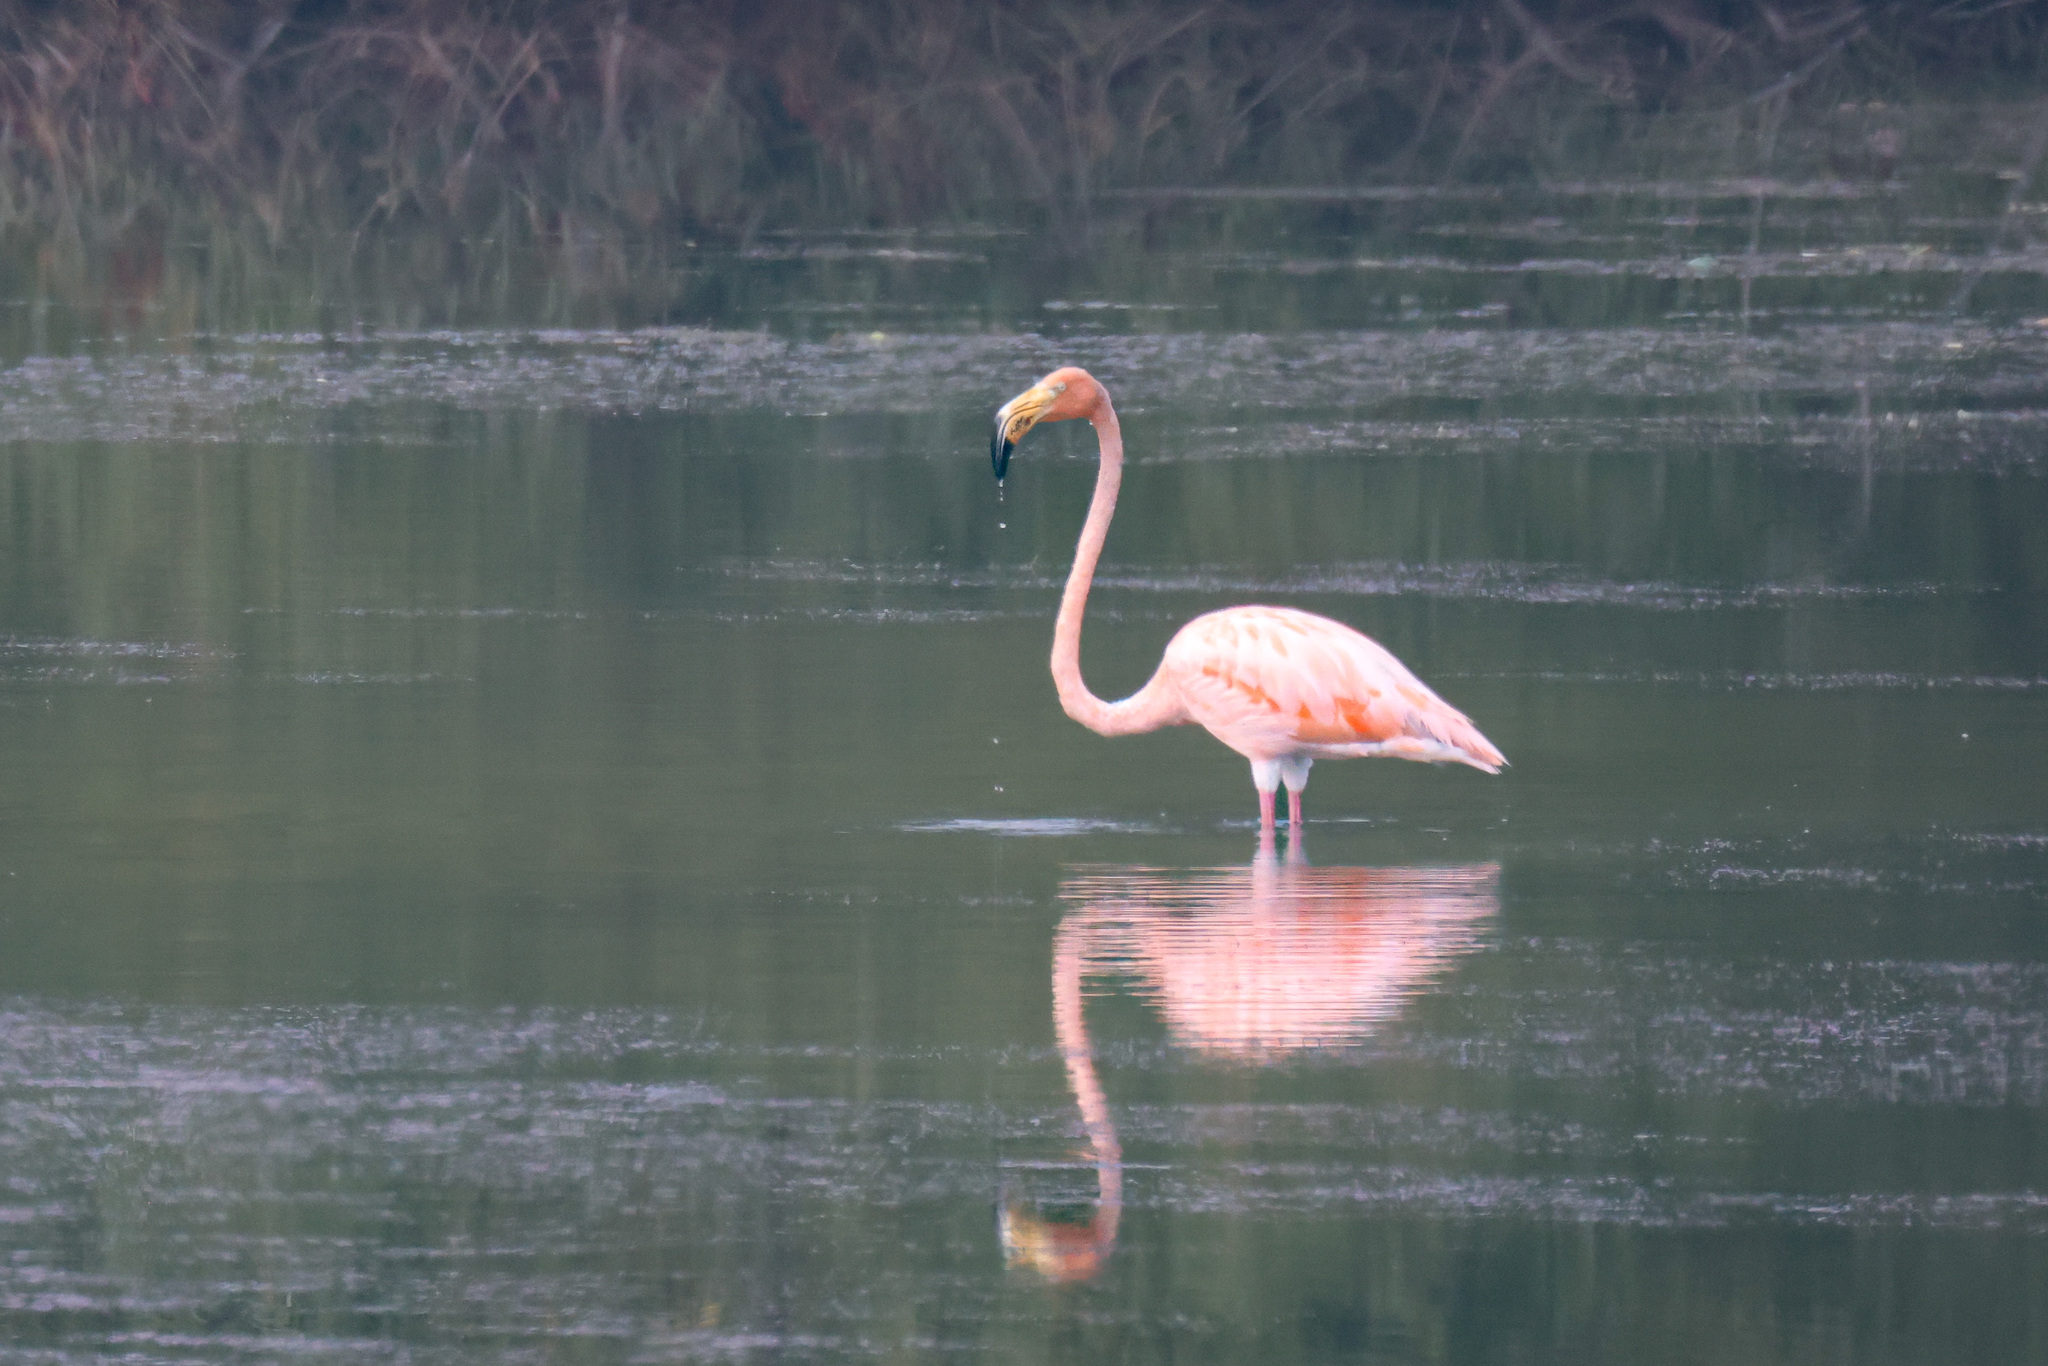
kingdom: Animalia
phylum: Chordata
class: Aves
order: Phoenicopteriformes
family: Phoenicopteridae
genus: Phoenicopterus
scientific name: Phoenicopterus ruber
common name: American flamingo
